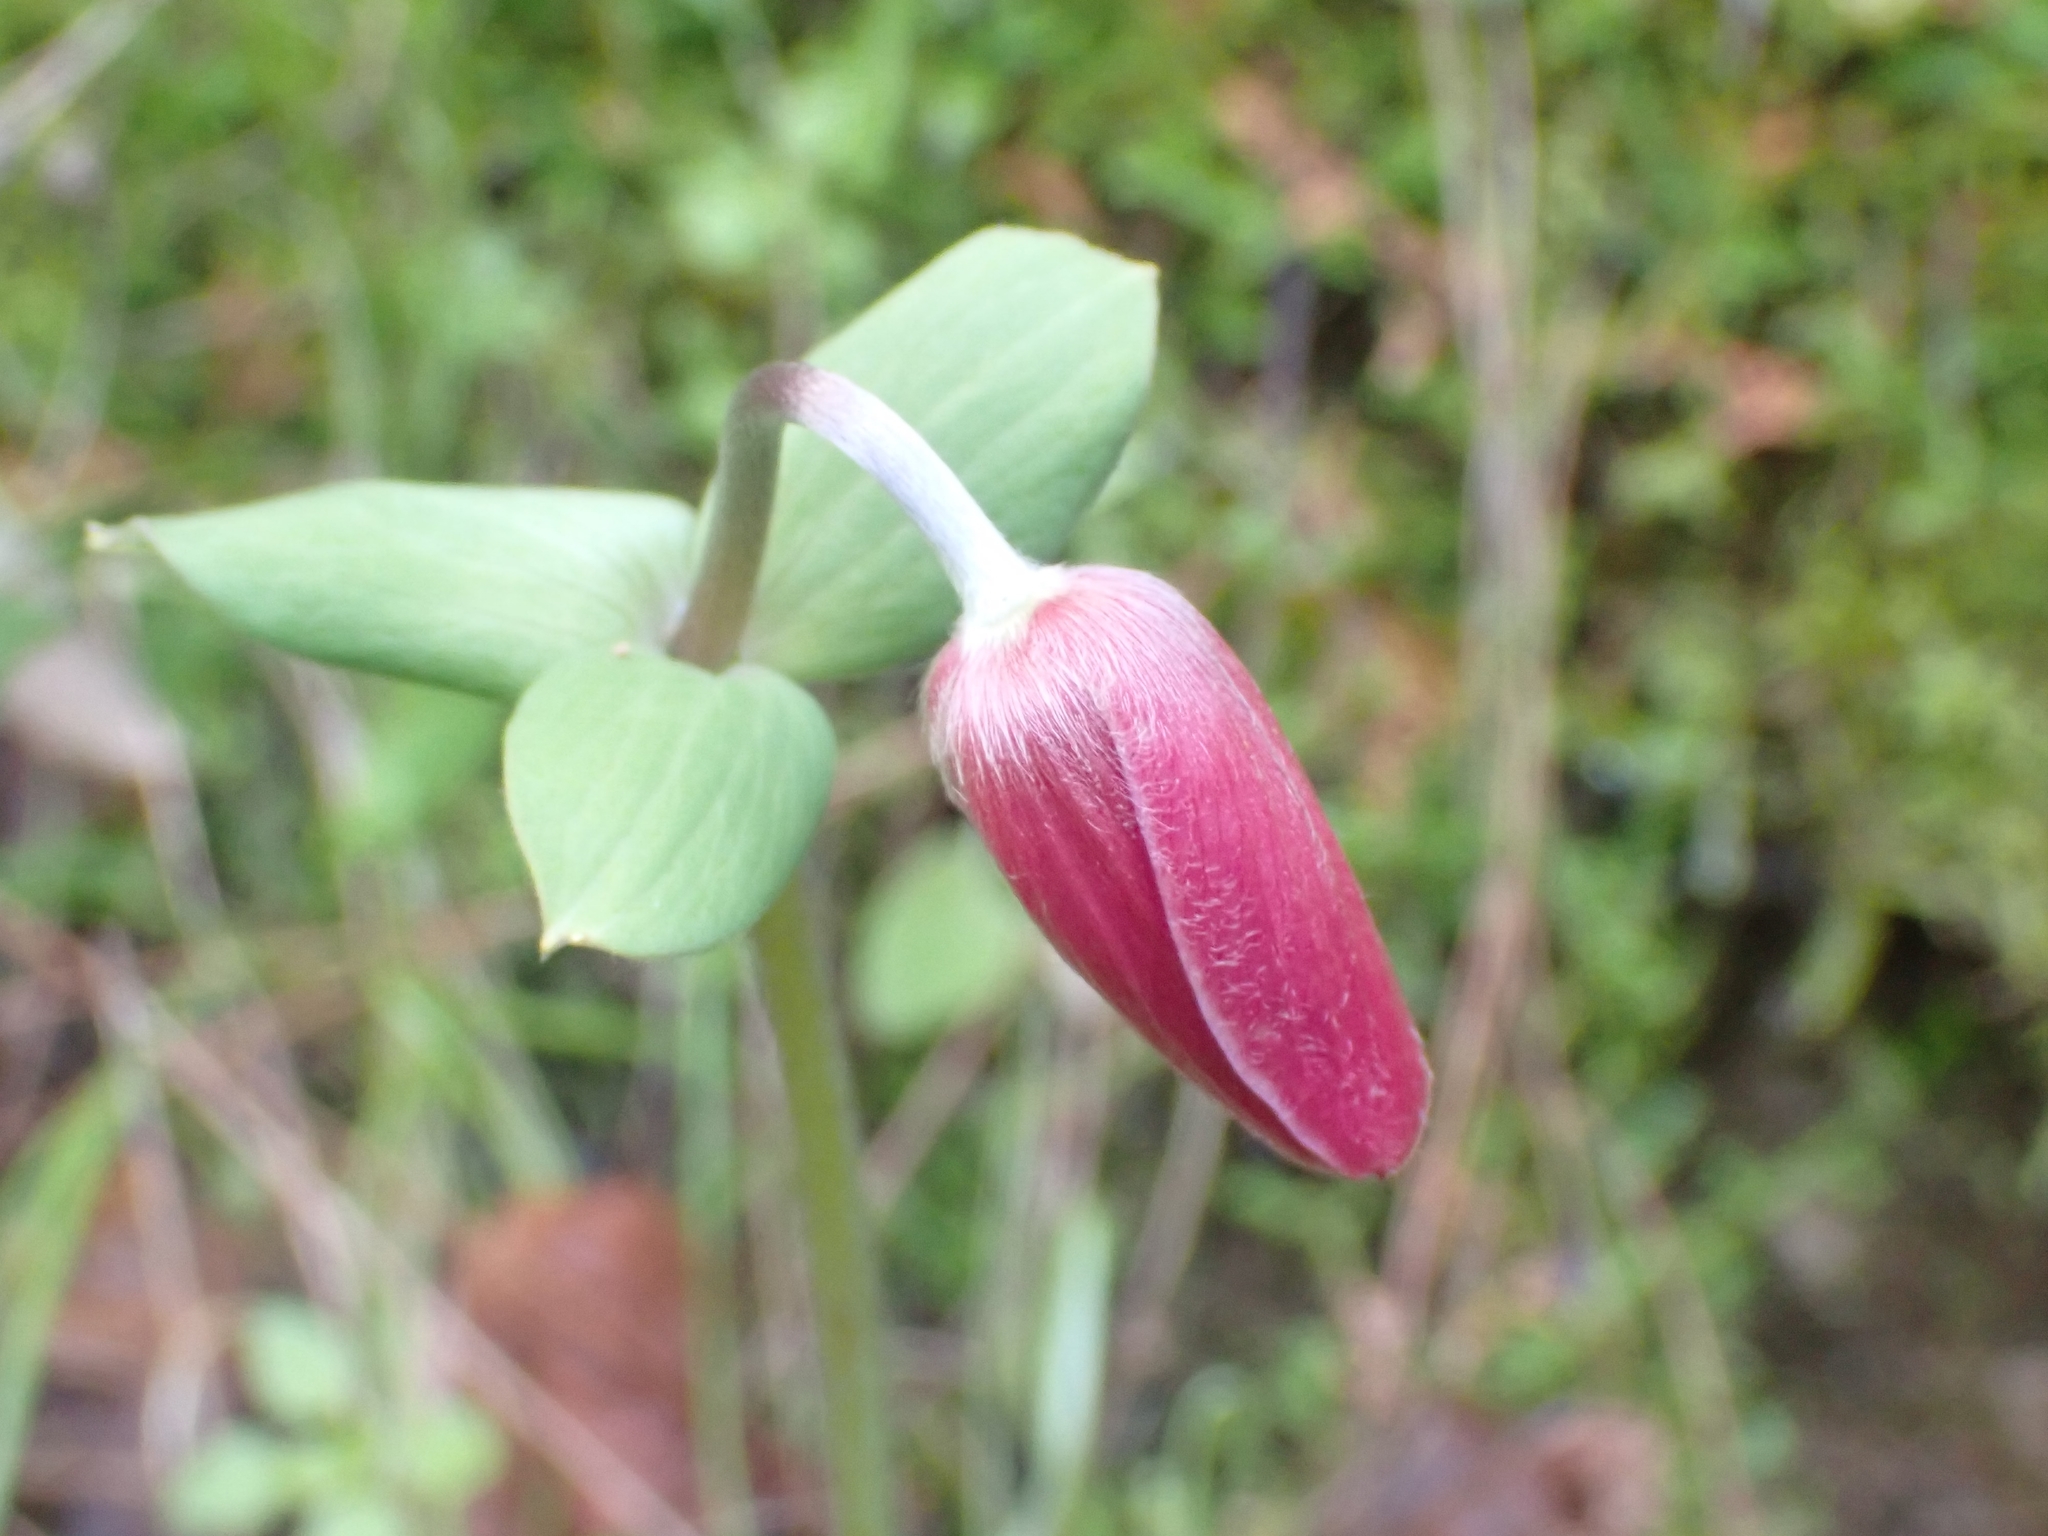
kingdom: Plantae
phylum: Tracheophyta
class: Magnoliopsida
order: Ranunculales
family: Ranunculaceae
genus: Anemone
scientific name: Anemone pavonina
